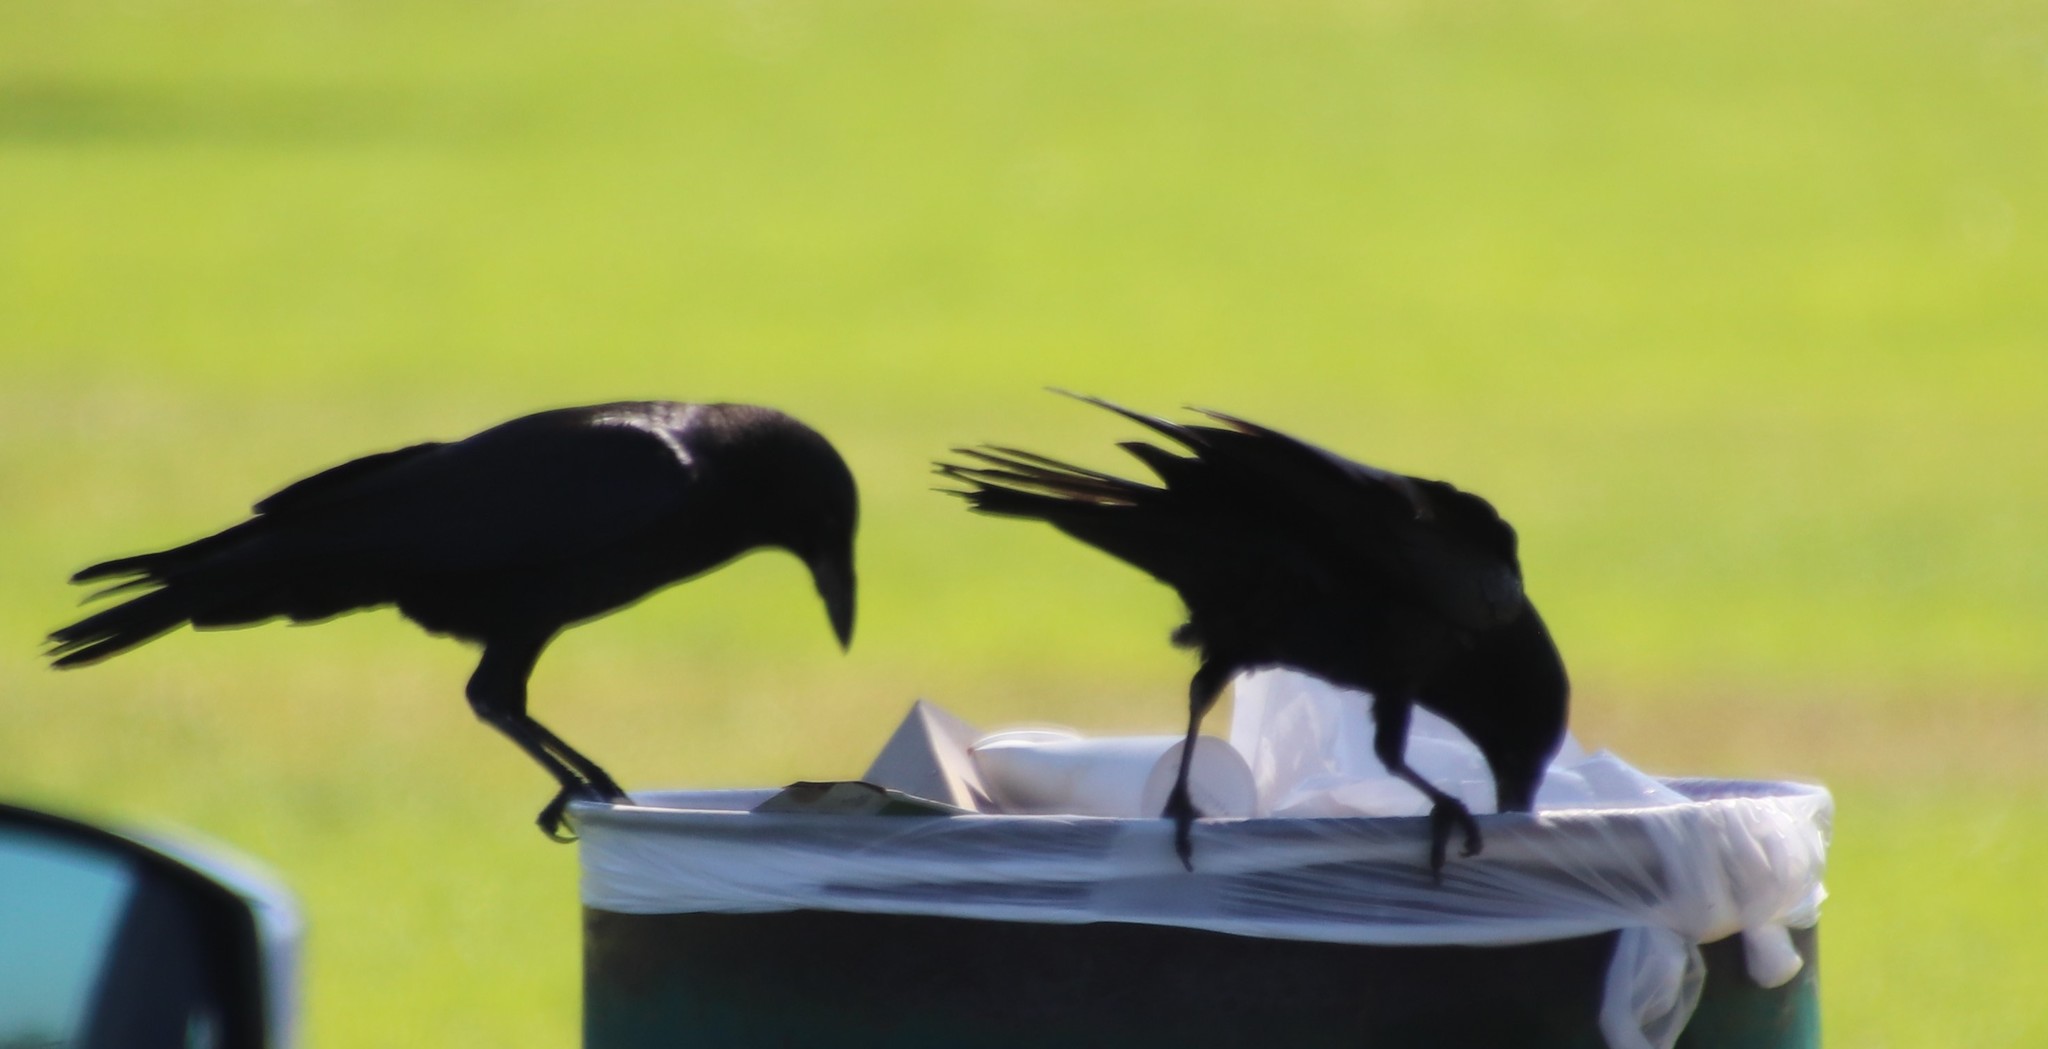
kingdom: Animalia
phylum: Chordata
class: Aves
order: Passeriformes
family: Corvidae
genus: Corvus
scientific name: Corvus brachyrhynchos
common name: American crow
